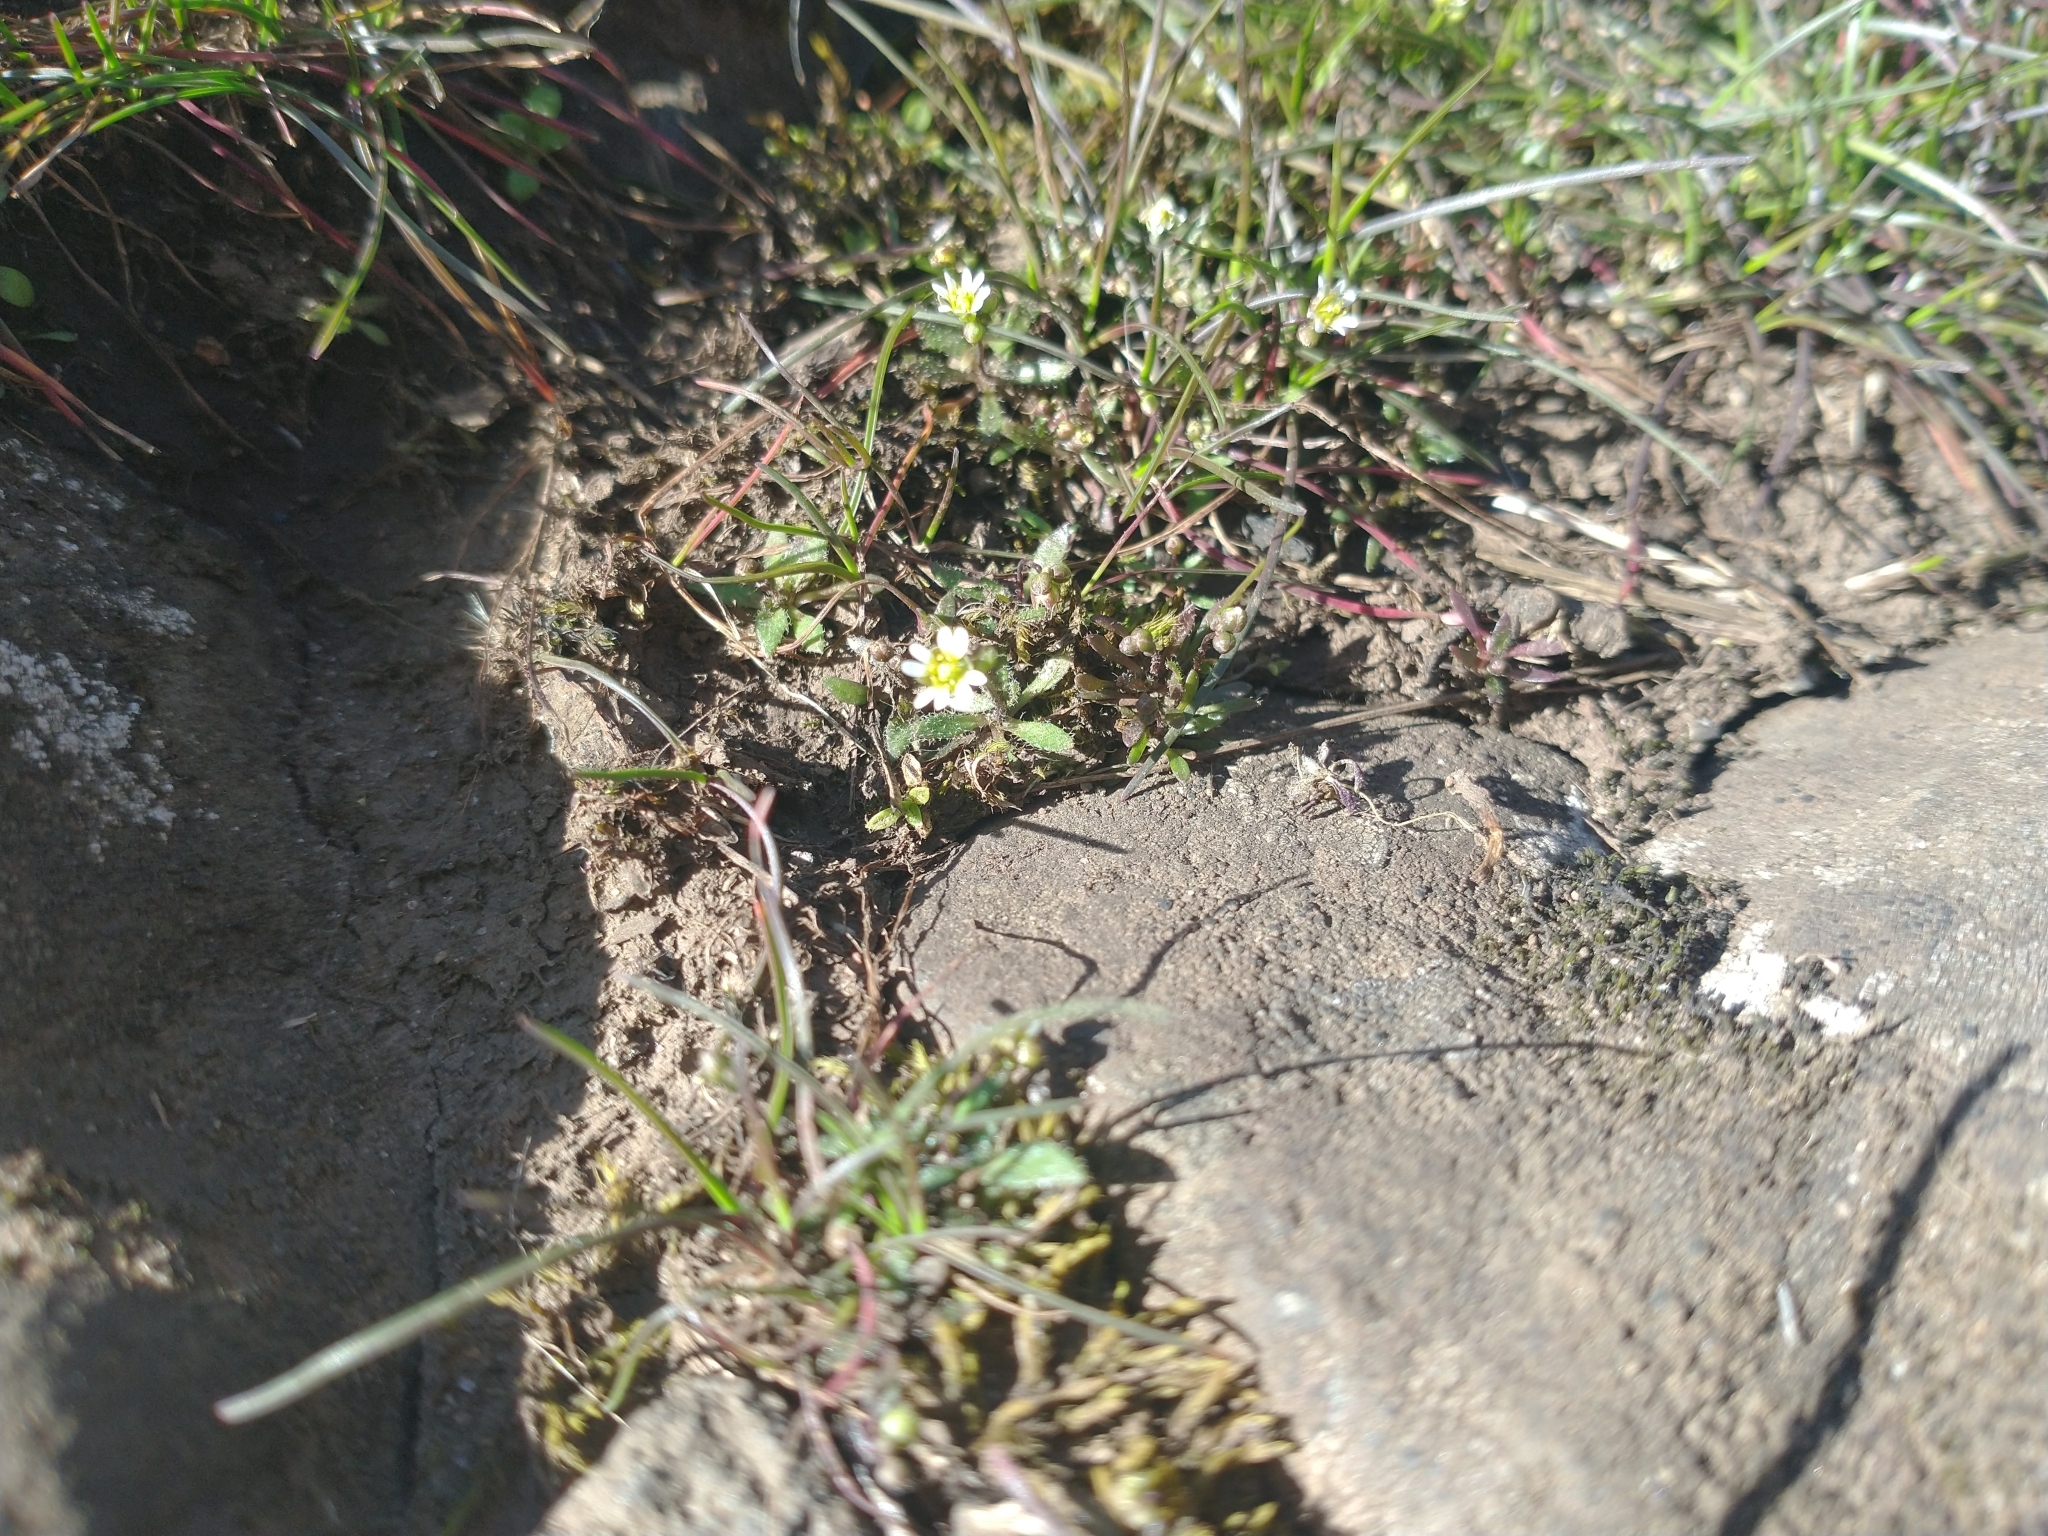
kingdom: Plantae
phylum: Tracheophyta
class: Magnoliopsida
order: Brassicales
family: Brassicaceae
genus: Draba
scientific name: Draba verna
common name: Spring draba
